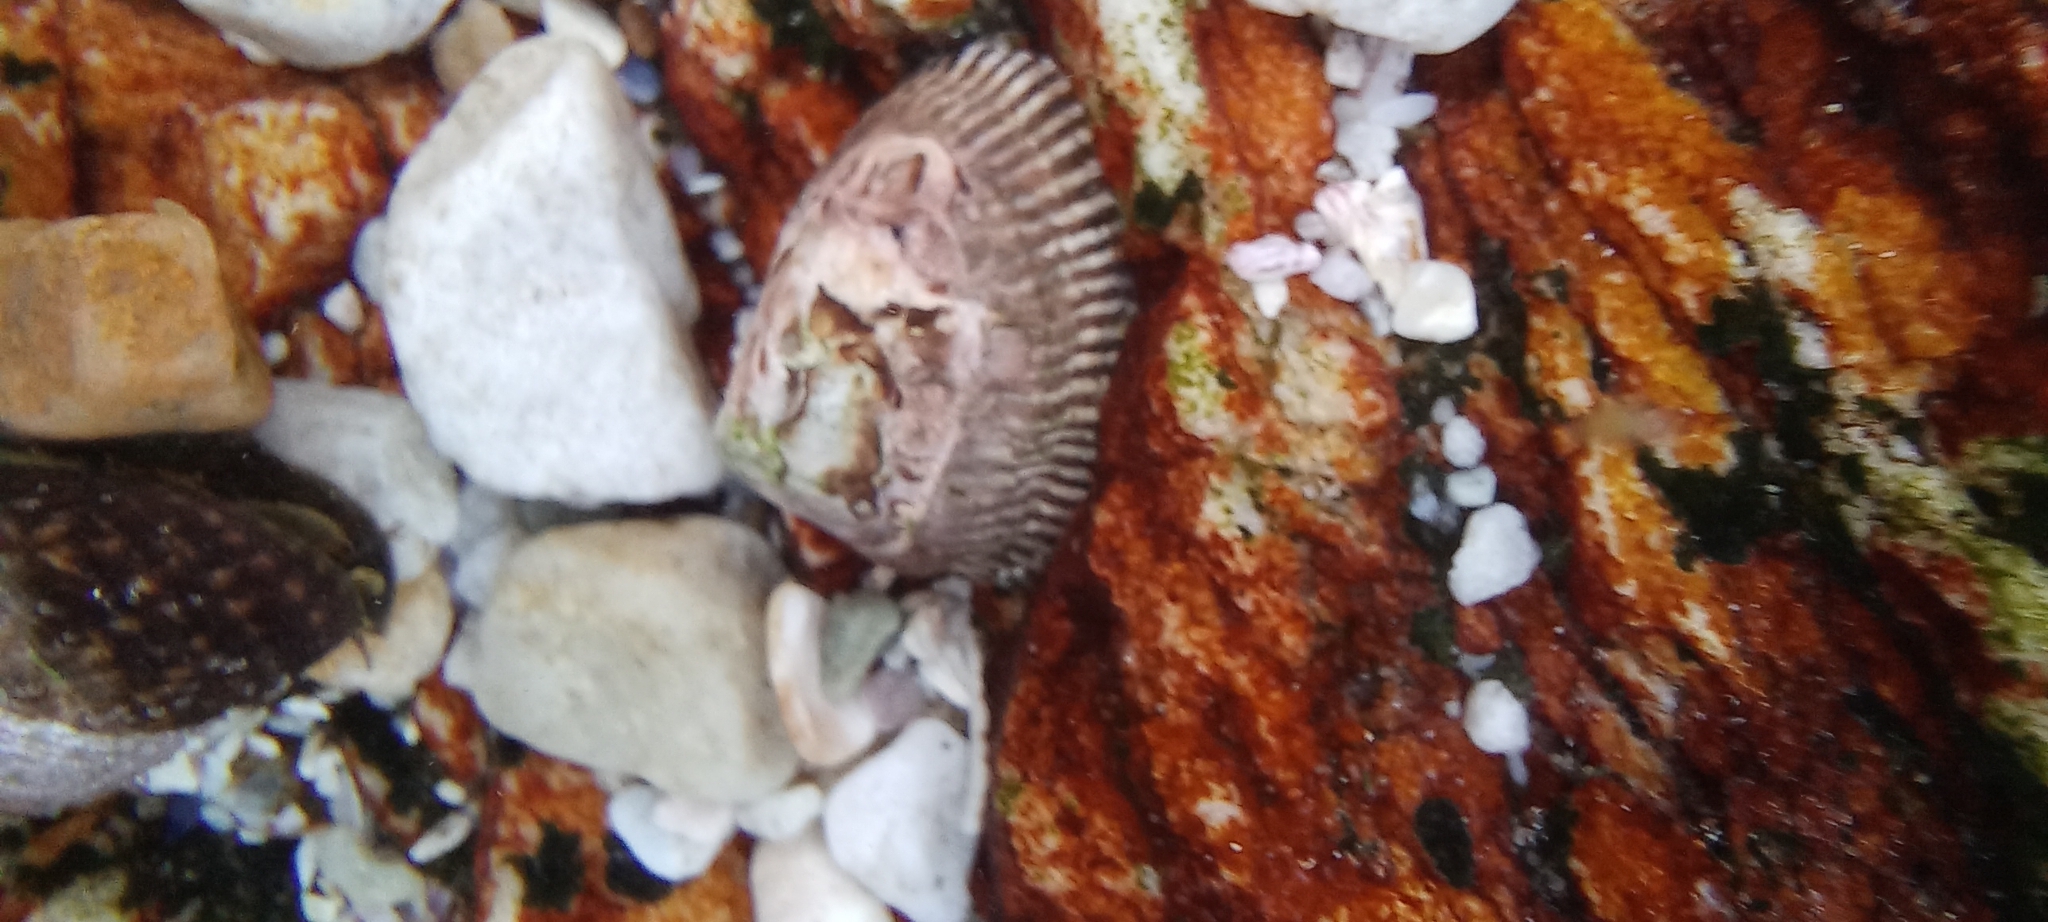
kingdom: Animalia
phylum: Mollusca
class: Gastropoda
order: Siphonariida
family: Siphonariidae
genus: Siphonaria
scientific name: Siphonaria capensis
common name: Cape false limpet
